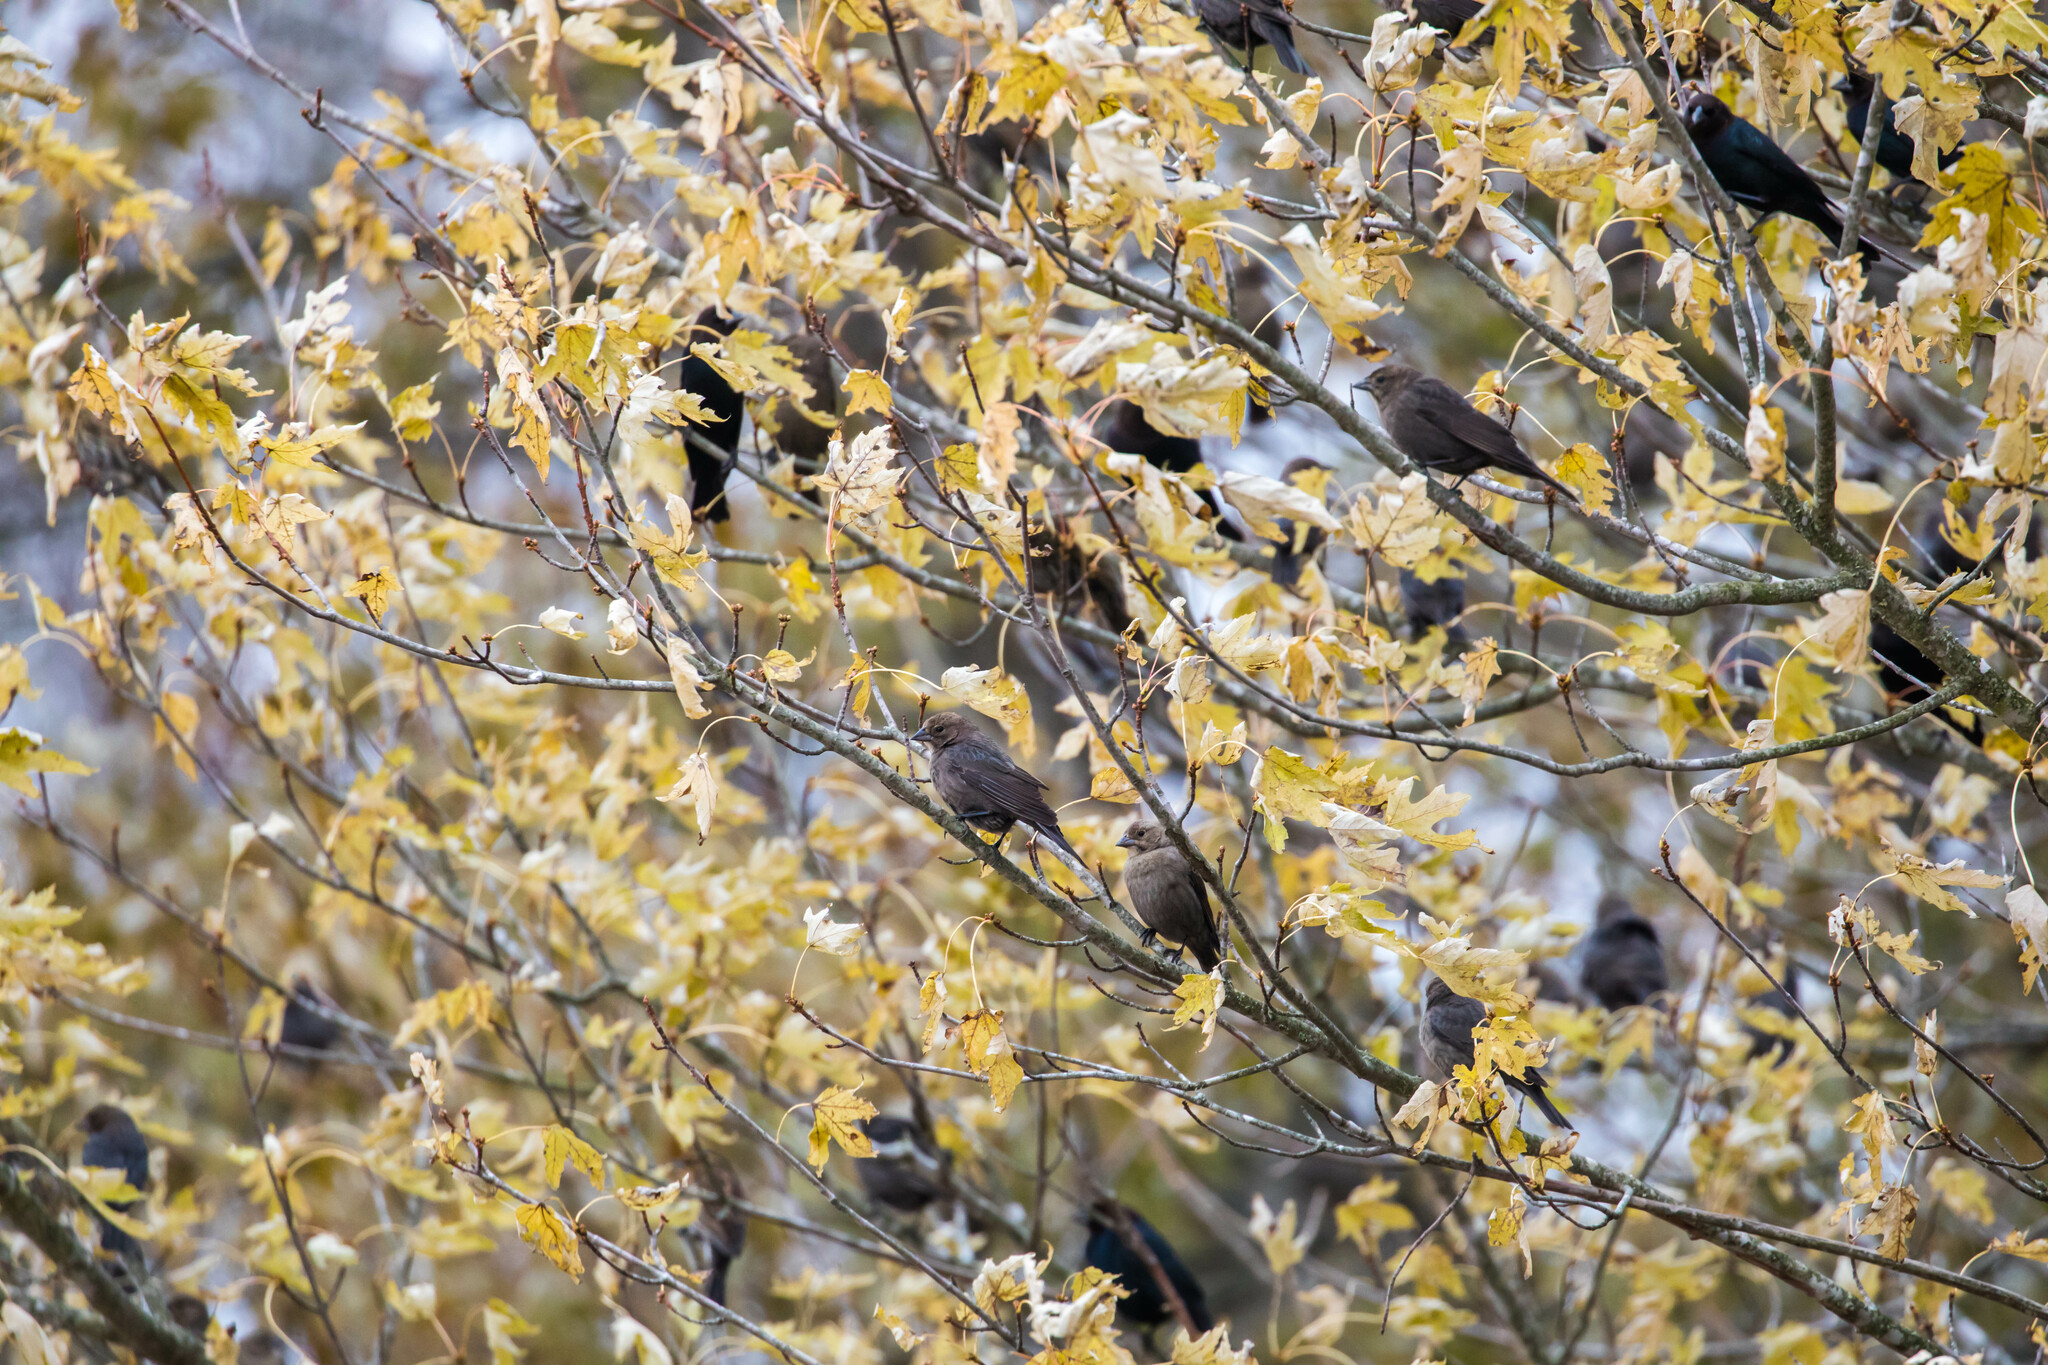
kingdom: Animalia
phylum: Chordata
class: Aves
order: Passeriformes
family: Icteridae
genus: Molothrus
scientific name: Molothrus ater
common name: Brown-headed cowbird
